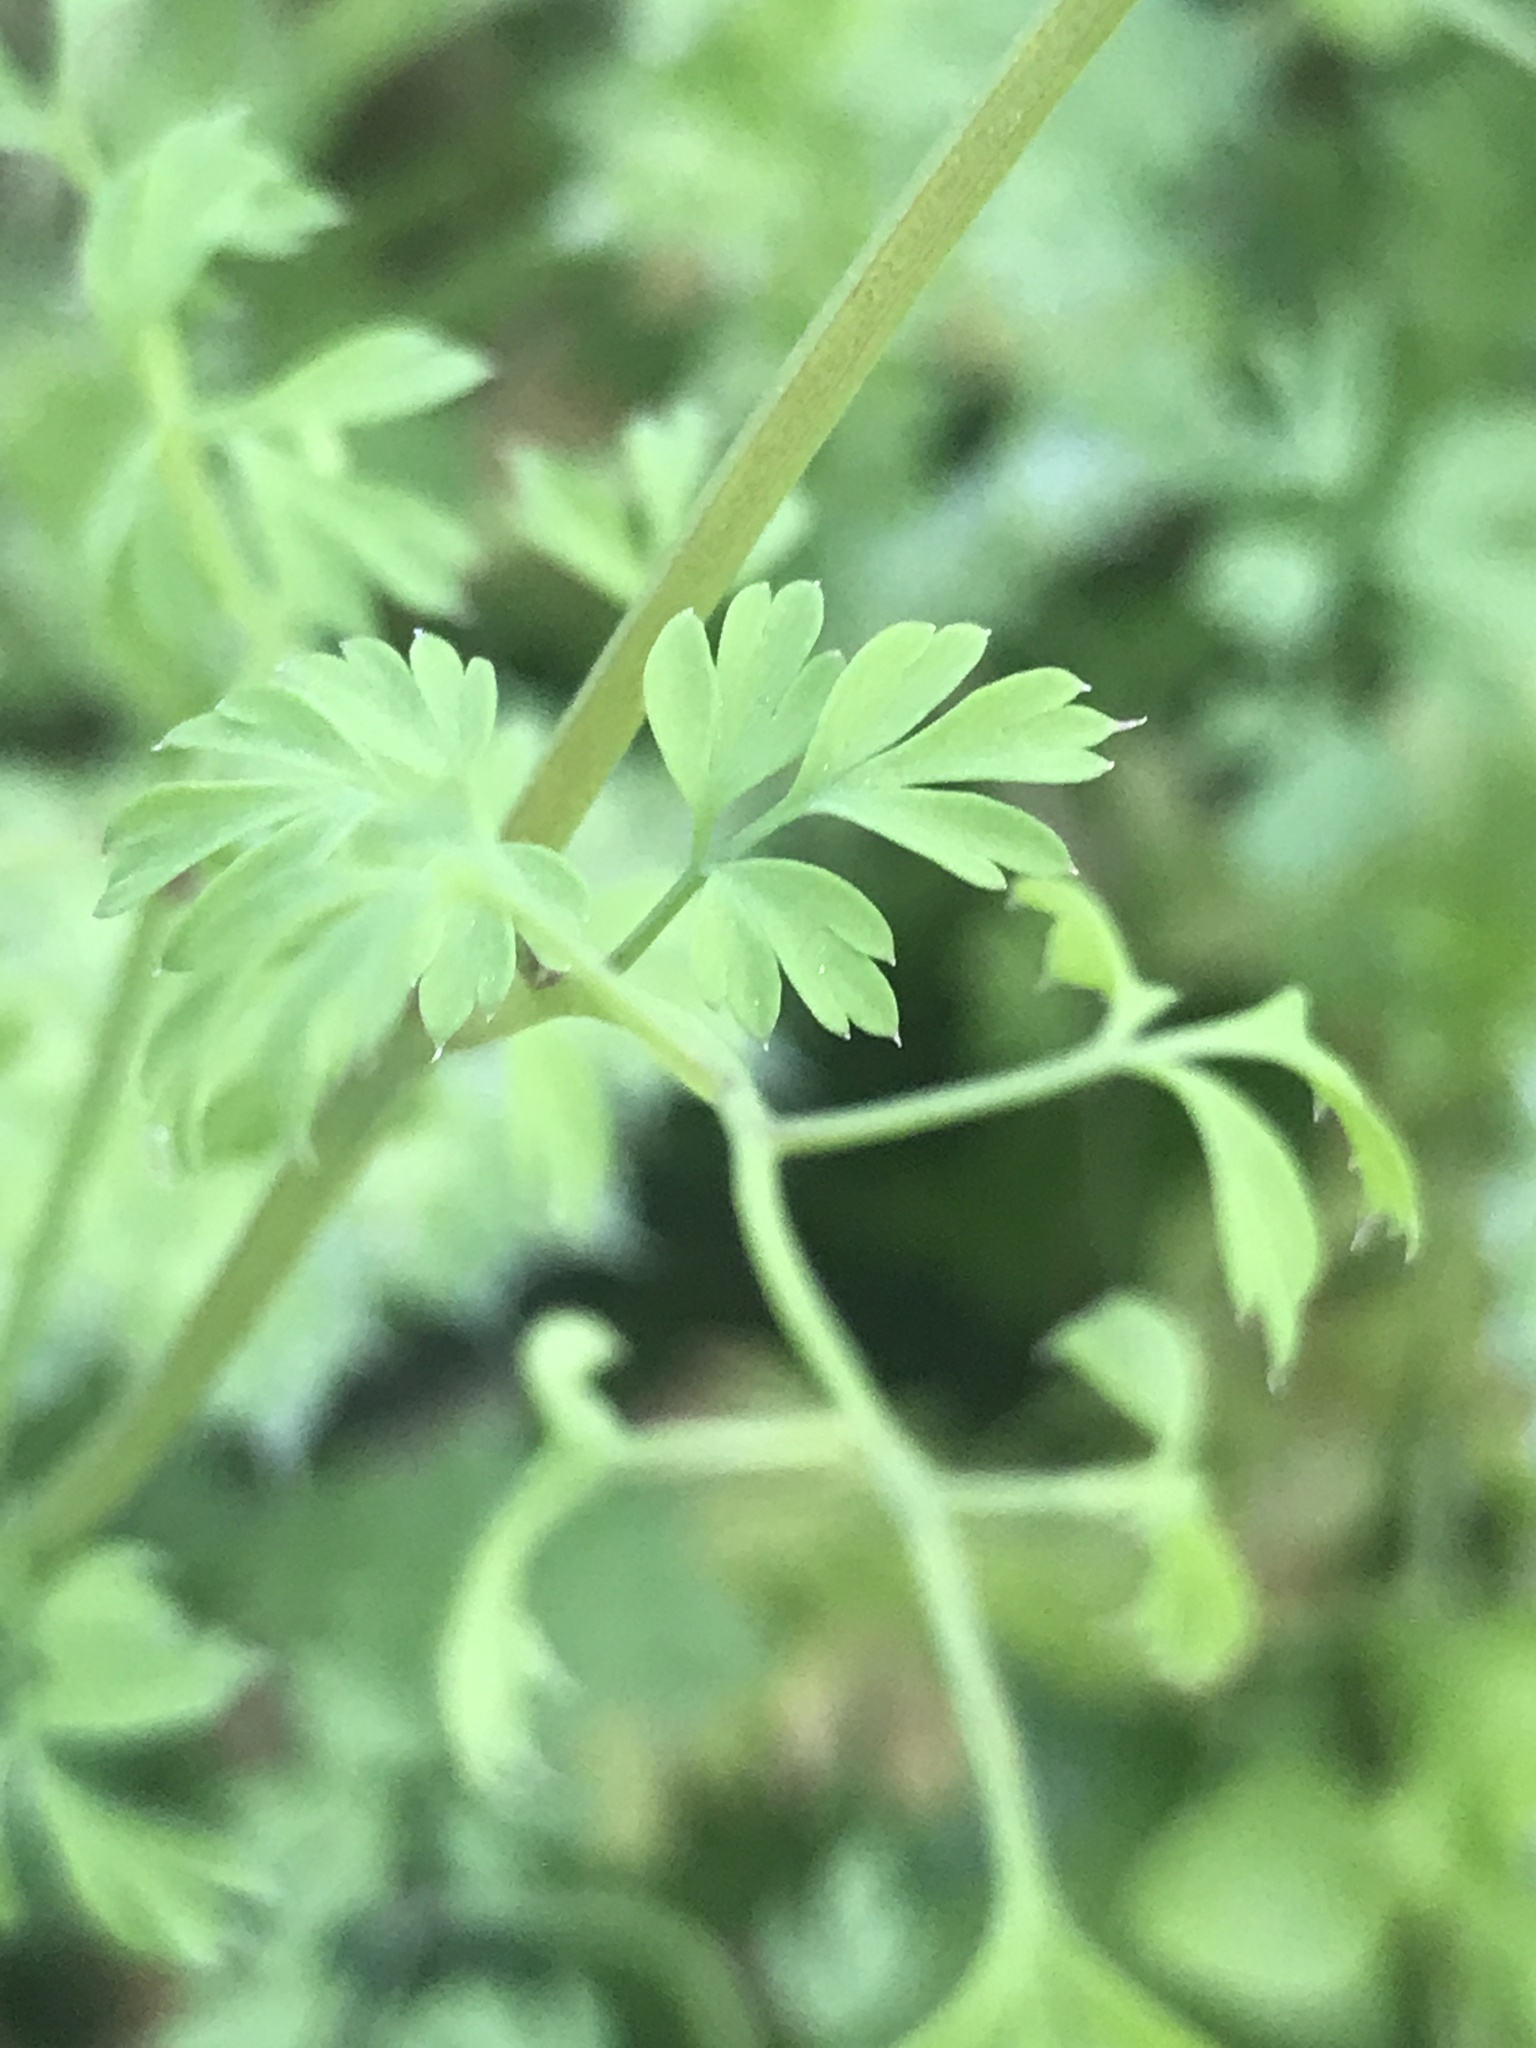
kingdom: Plantae
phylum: Tracheophyta
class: Magnoliopsida
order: Ranunculales
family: Papaveraceae
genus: Fumaria
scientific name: Fumaria capreolata
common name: White ramping-fumitory
